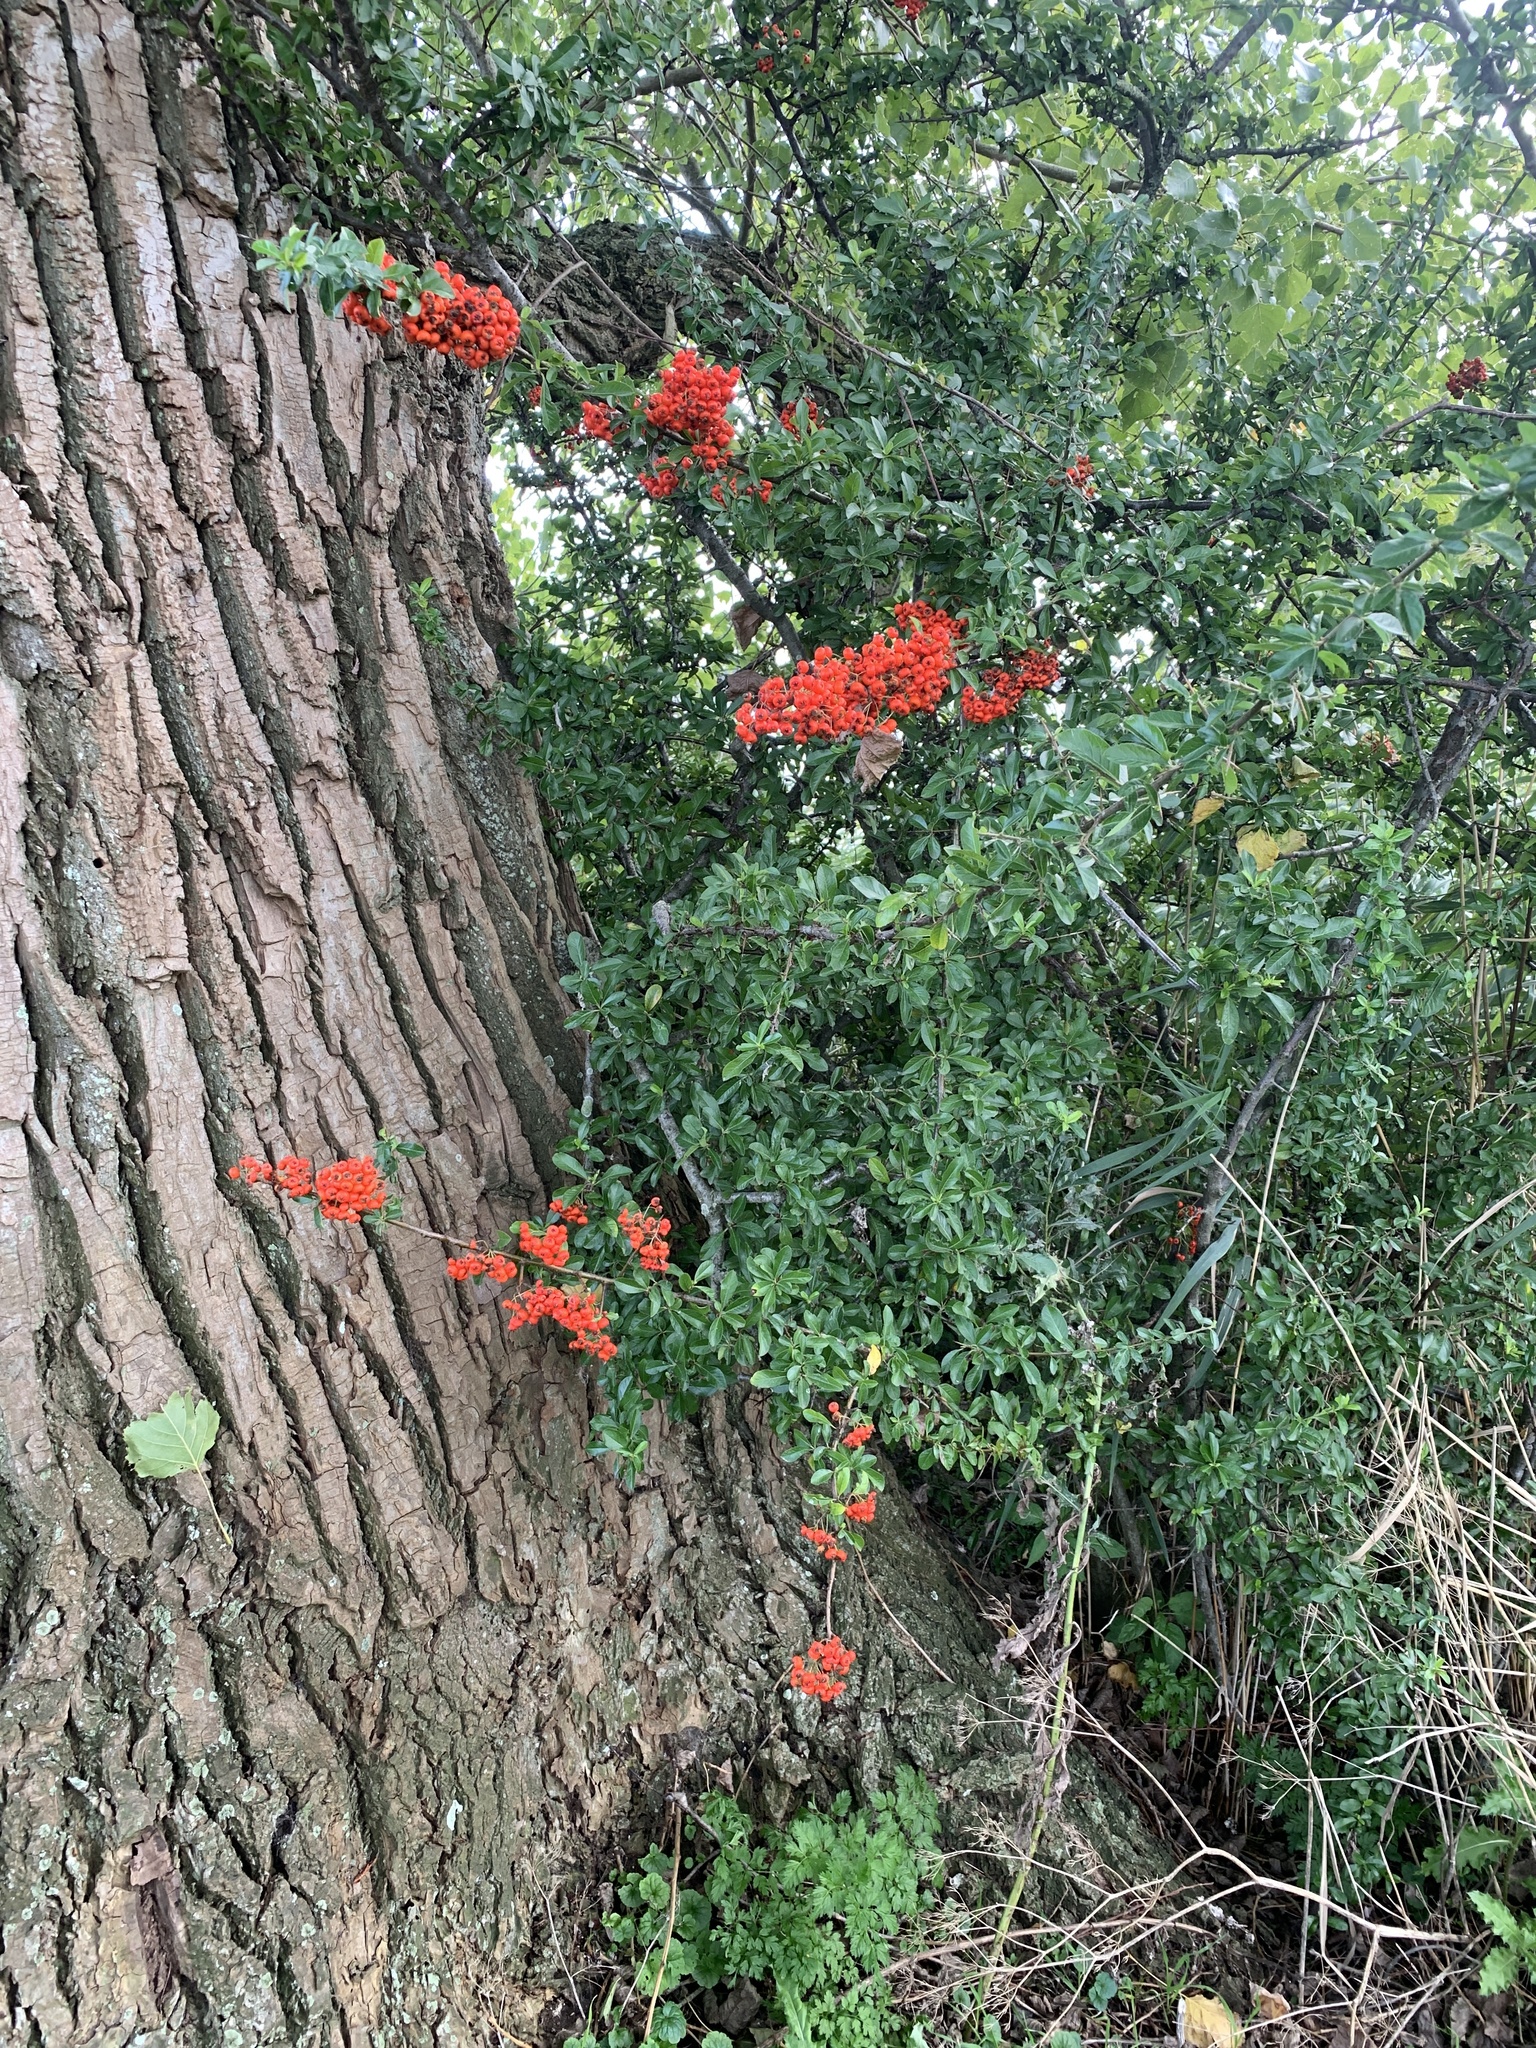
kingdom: Plantae
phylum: Tracheophyta
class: Magnoliopsida
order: Rosales
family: Rosaceae
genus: Pyracantha
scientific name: Pyracantha coccinea
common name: Firethorn
